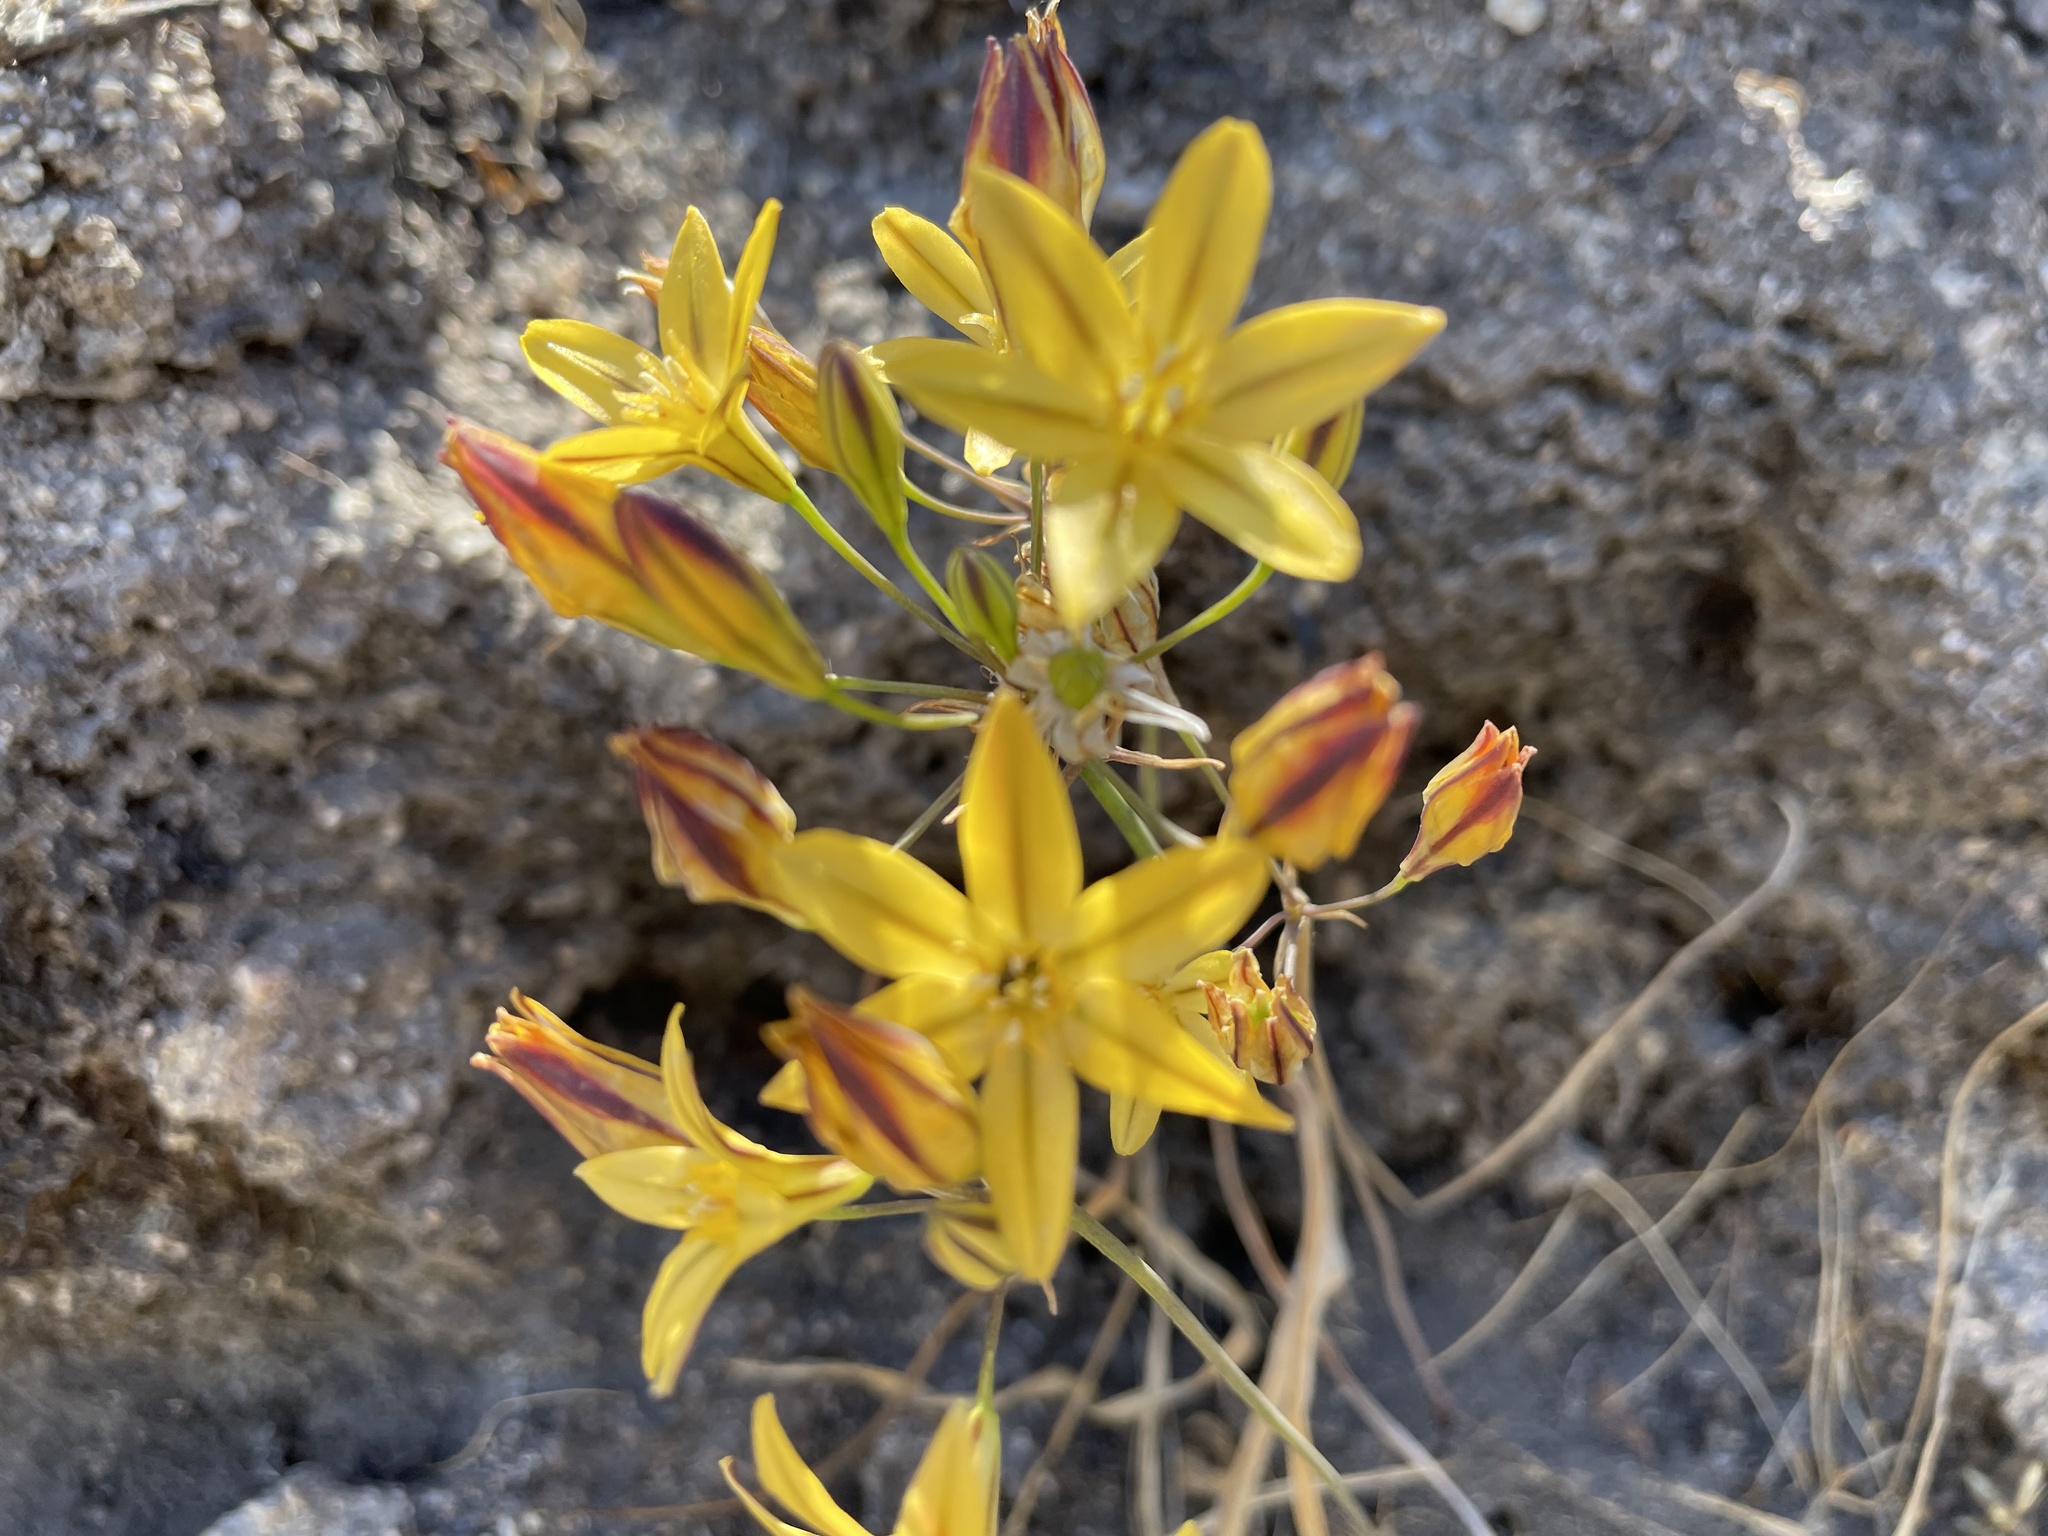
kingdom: Plantae
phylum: Tracheophyta
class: Liliopsida
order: Asparagales
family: Asparagaceae
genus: Triteleia
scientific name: Triteleia ixioides
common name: Yellow-brodiaea
